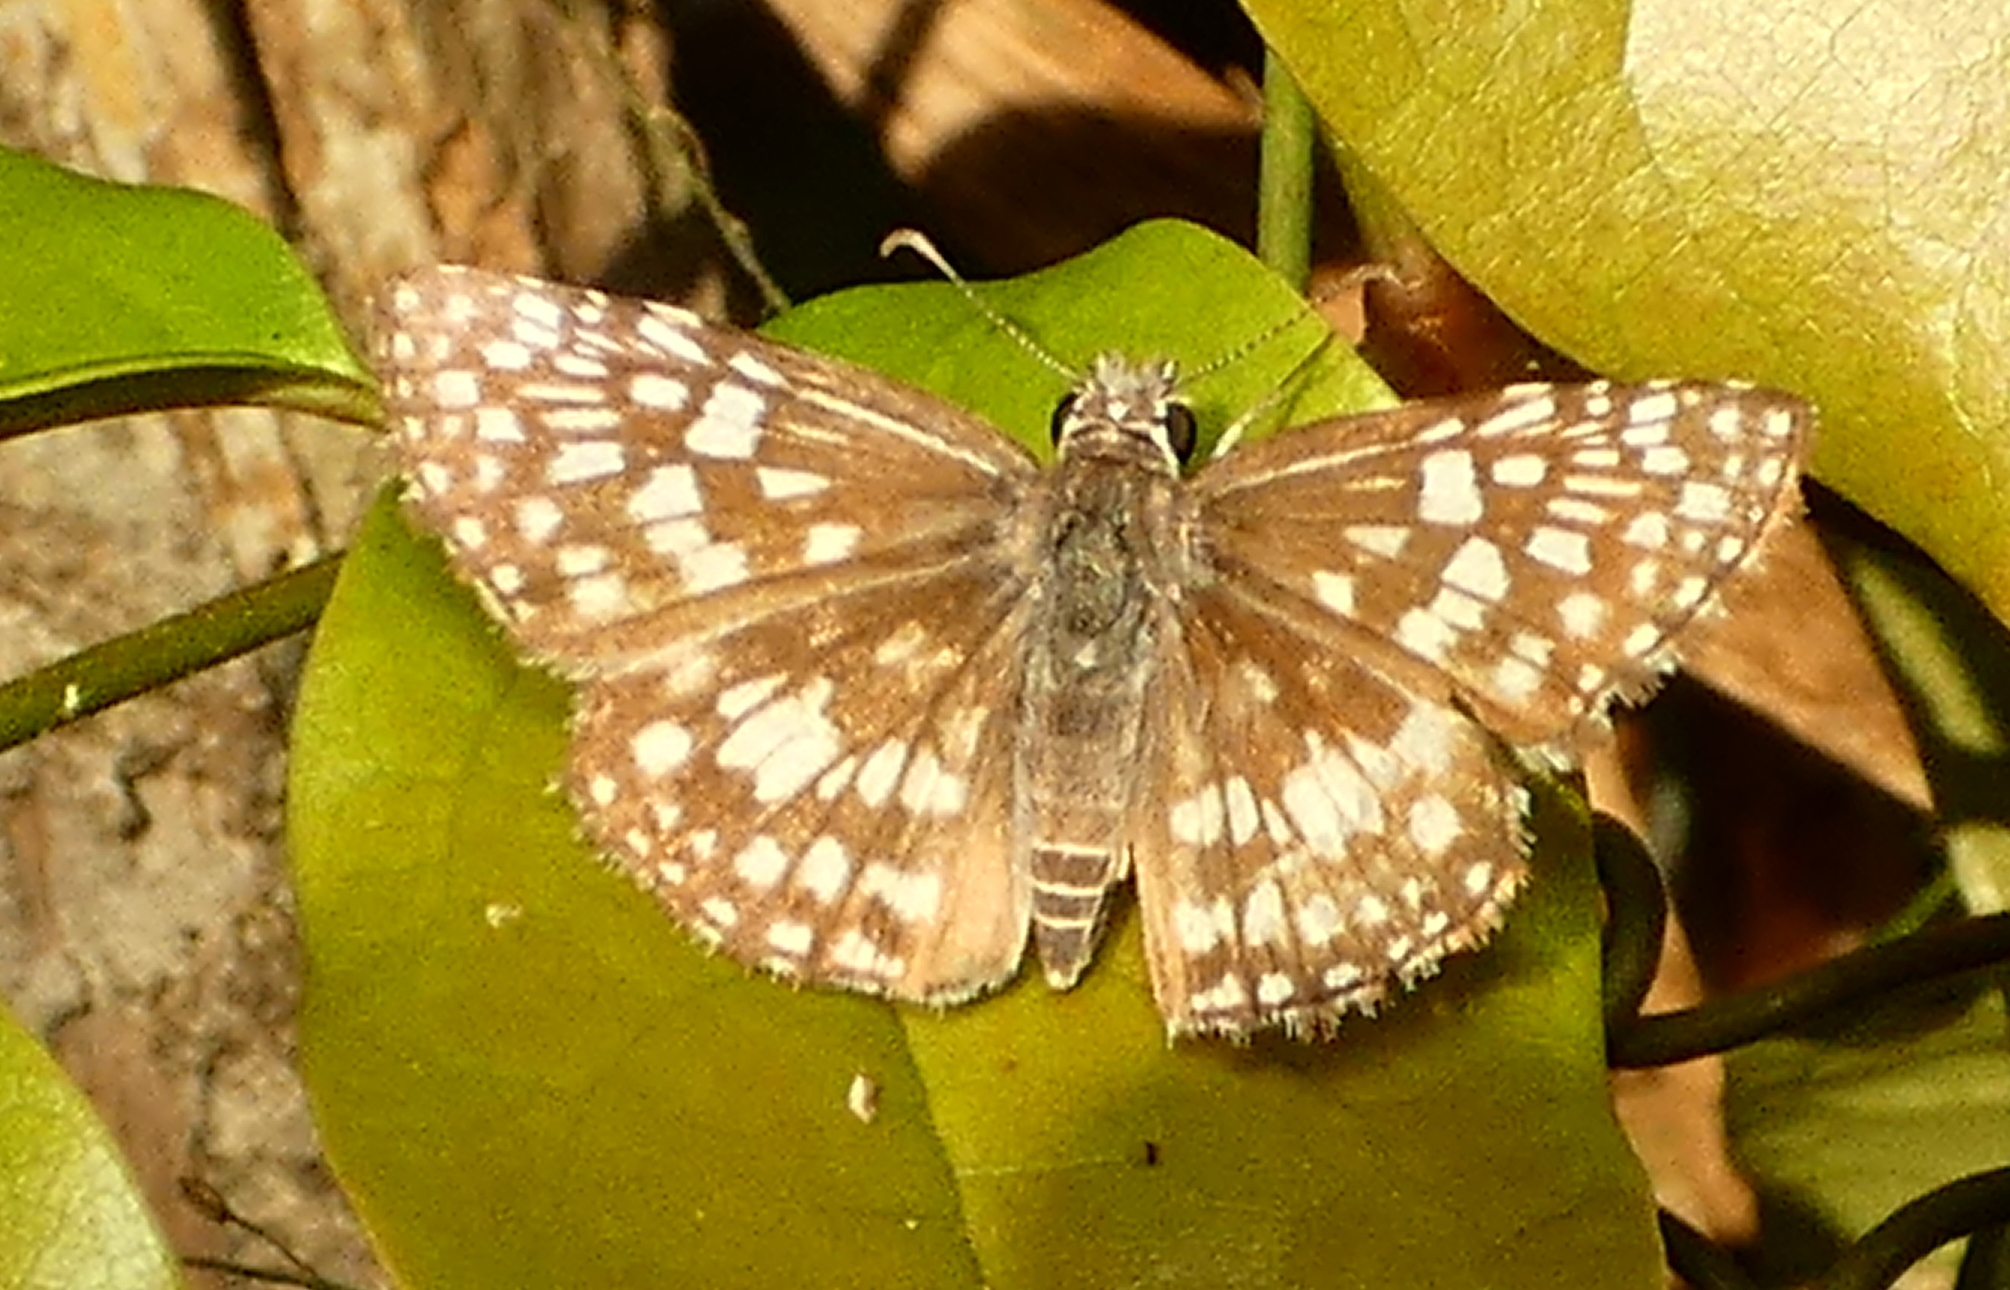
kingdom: Animalia
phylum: Arthropoda
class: Insecta
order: Lepidoptera
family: Hesperiidae
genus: Pyrgus
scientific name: Pyrgus oileus
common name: Tropical checkered-skipper
